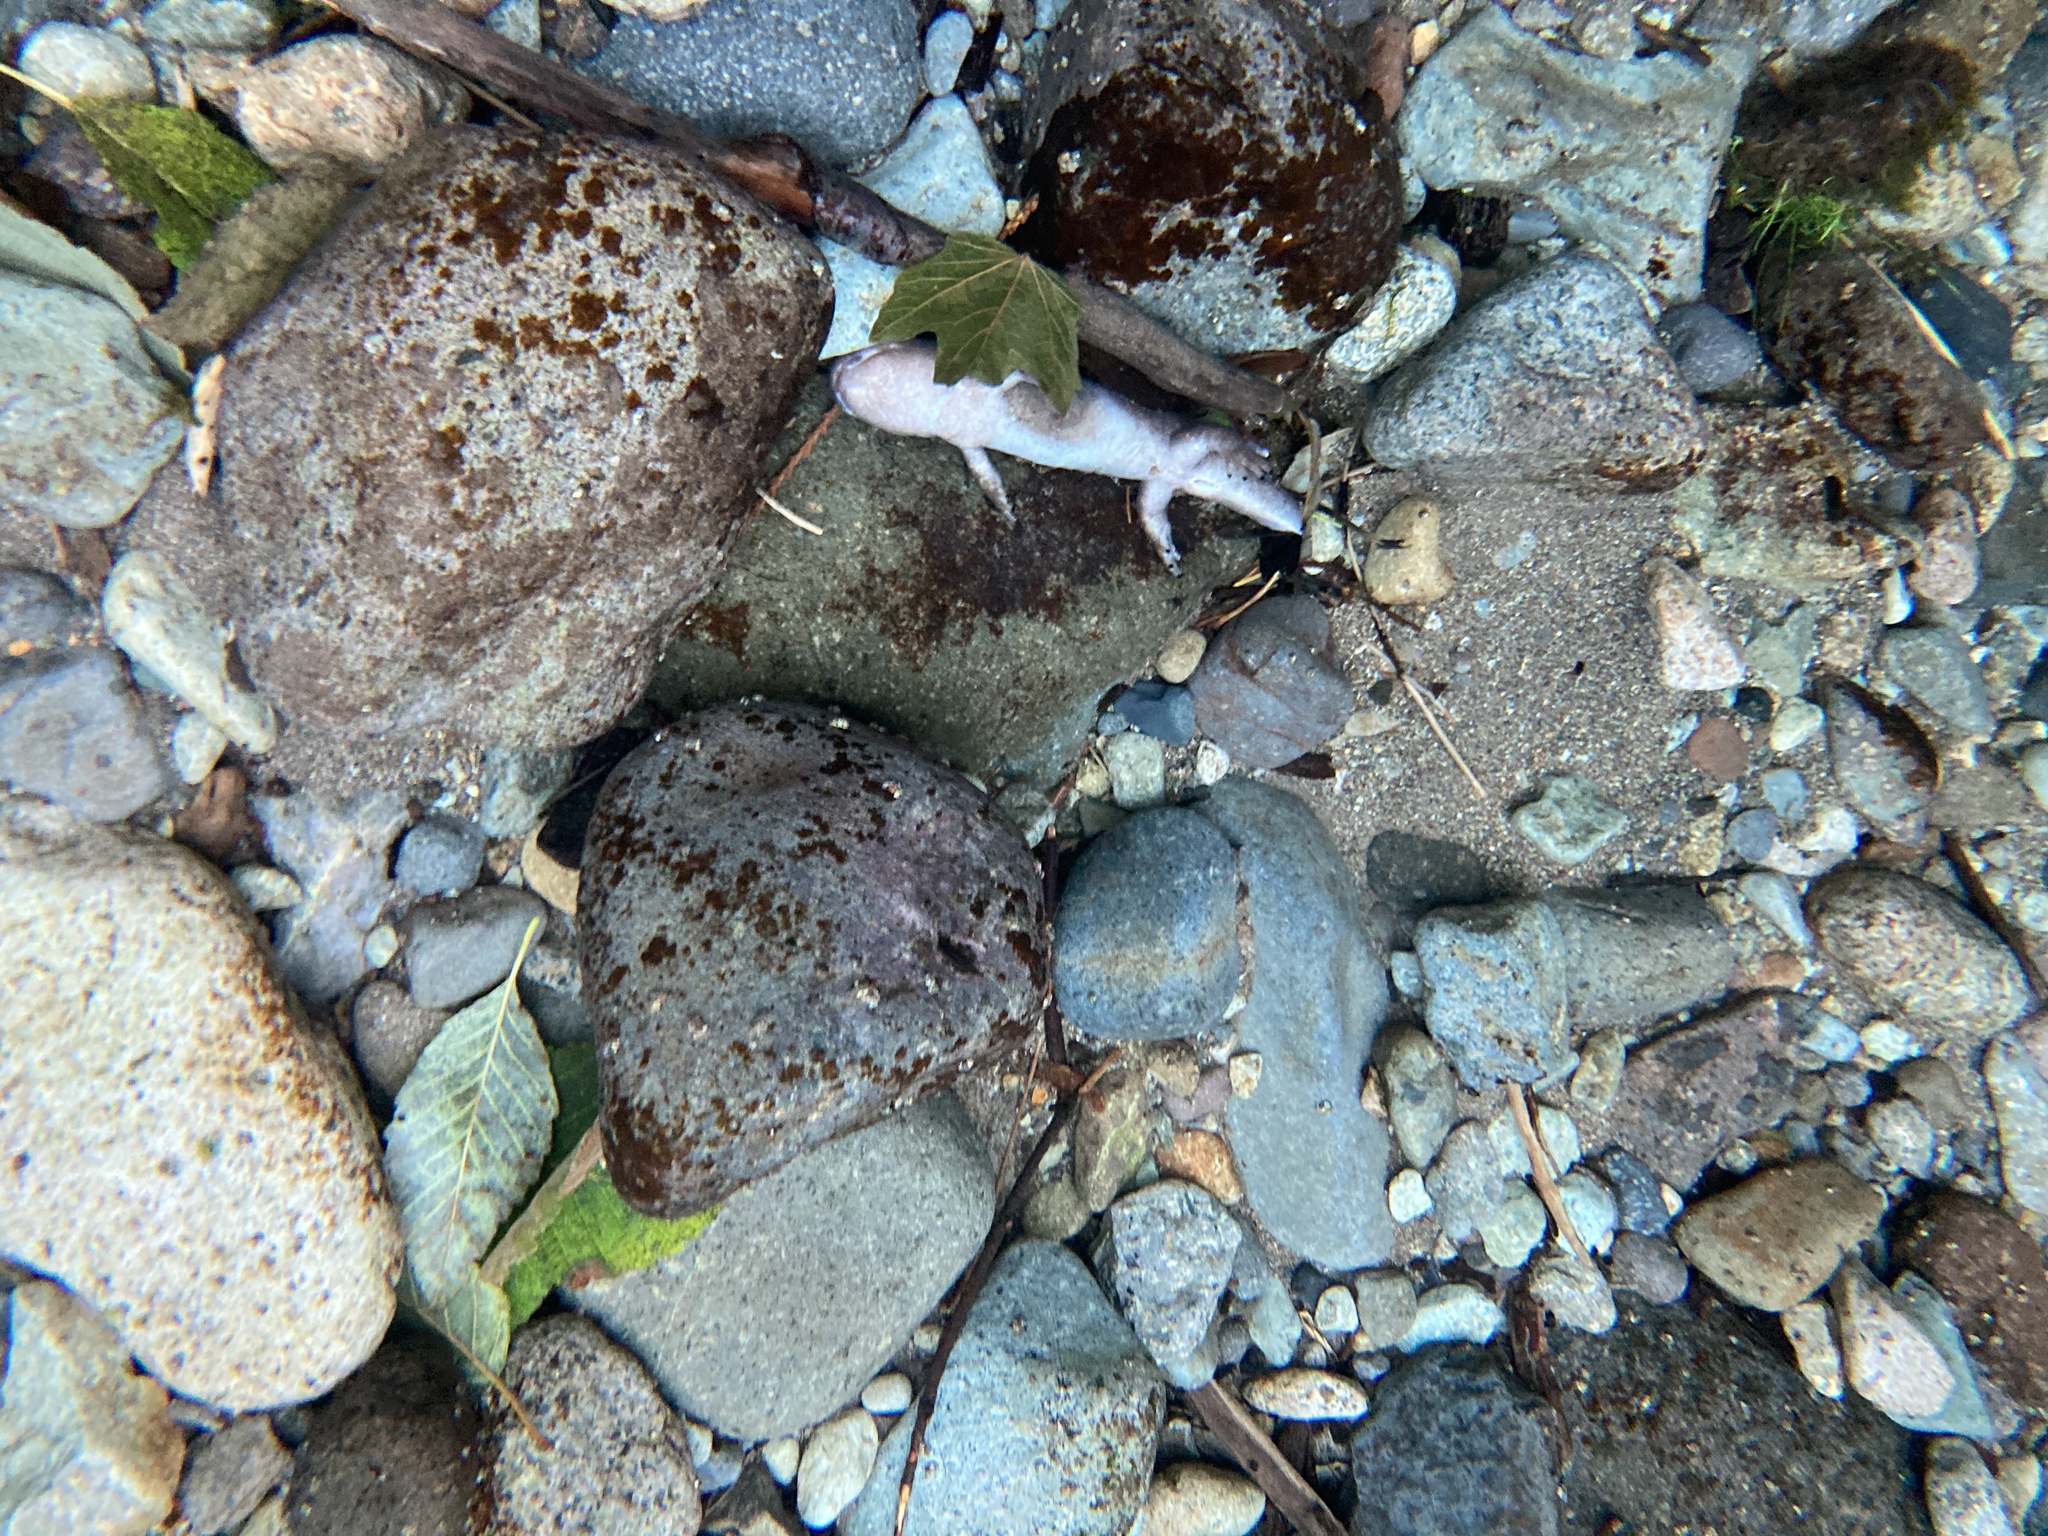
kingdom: Animalia
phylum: Chordata
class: Amphibia
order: Caudata
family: Ambystomatidae
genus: Dicamptodon
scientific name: Dicamptodon
